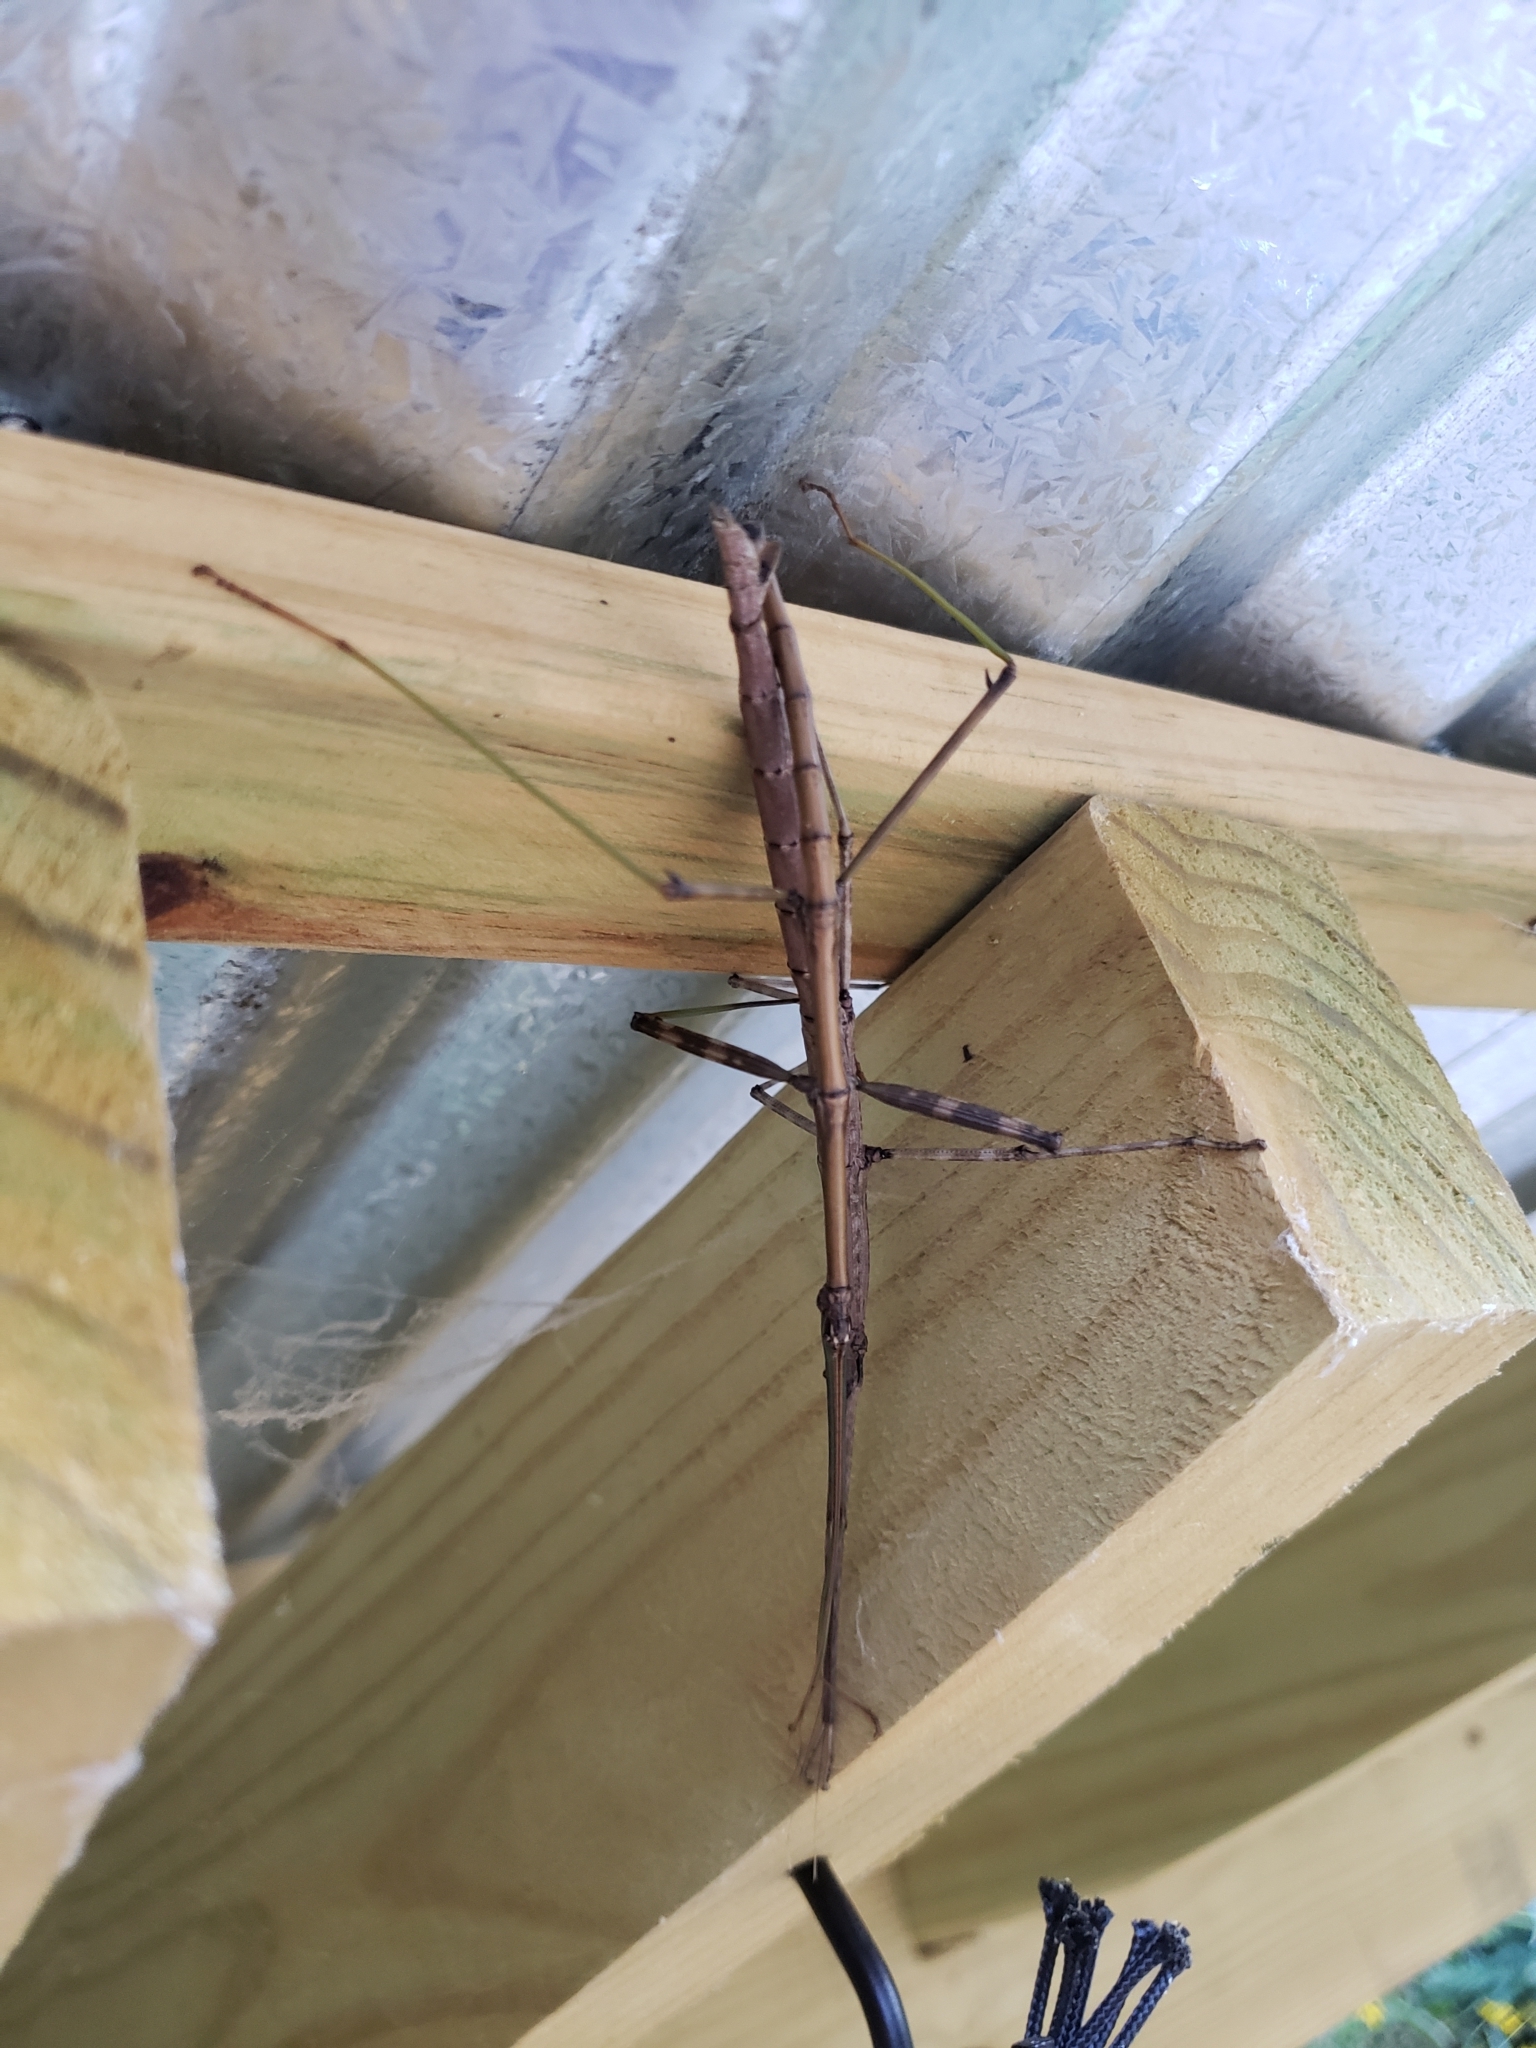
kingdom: Animalia
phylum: Arthropoda
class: Insecta
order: Phasmida
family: Diapheromeridae
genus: Diapheromera
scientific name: Diapheromera femorata
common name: Common american walkingstick
